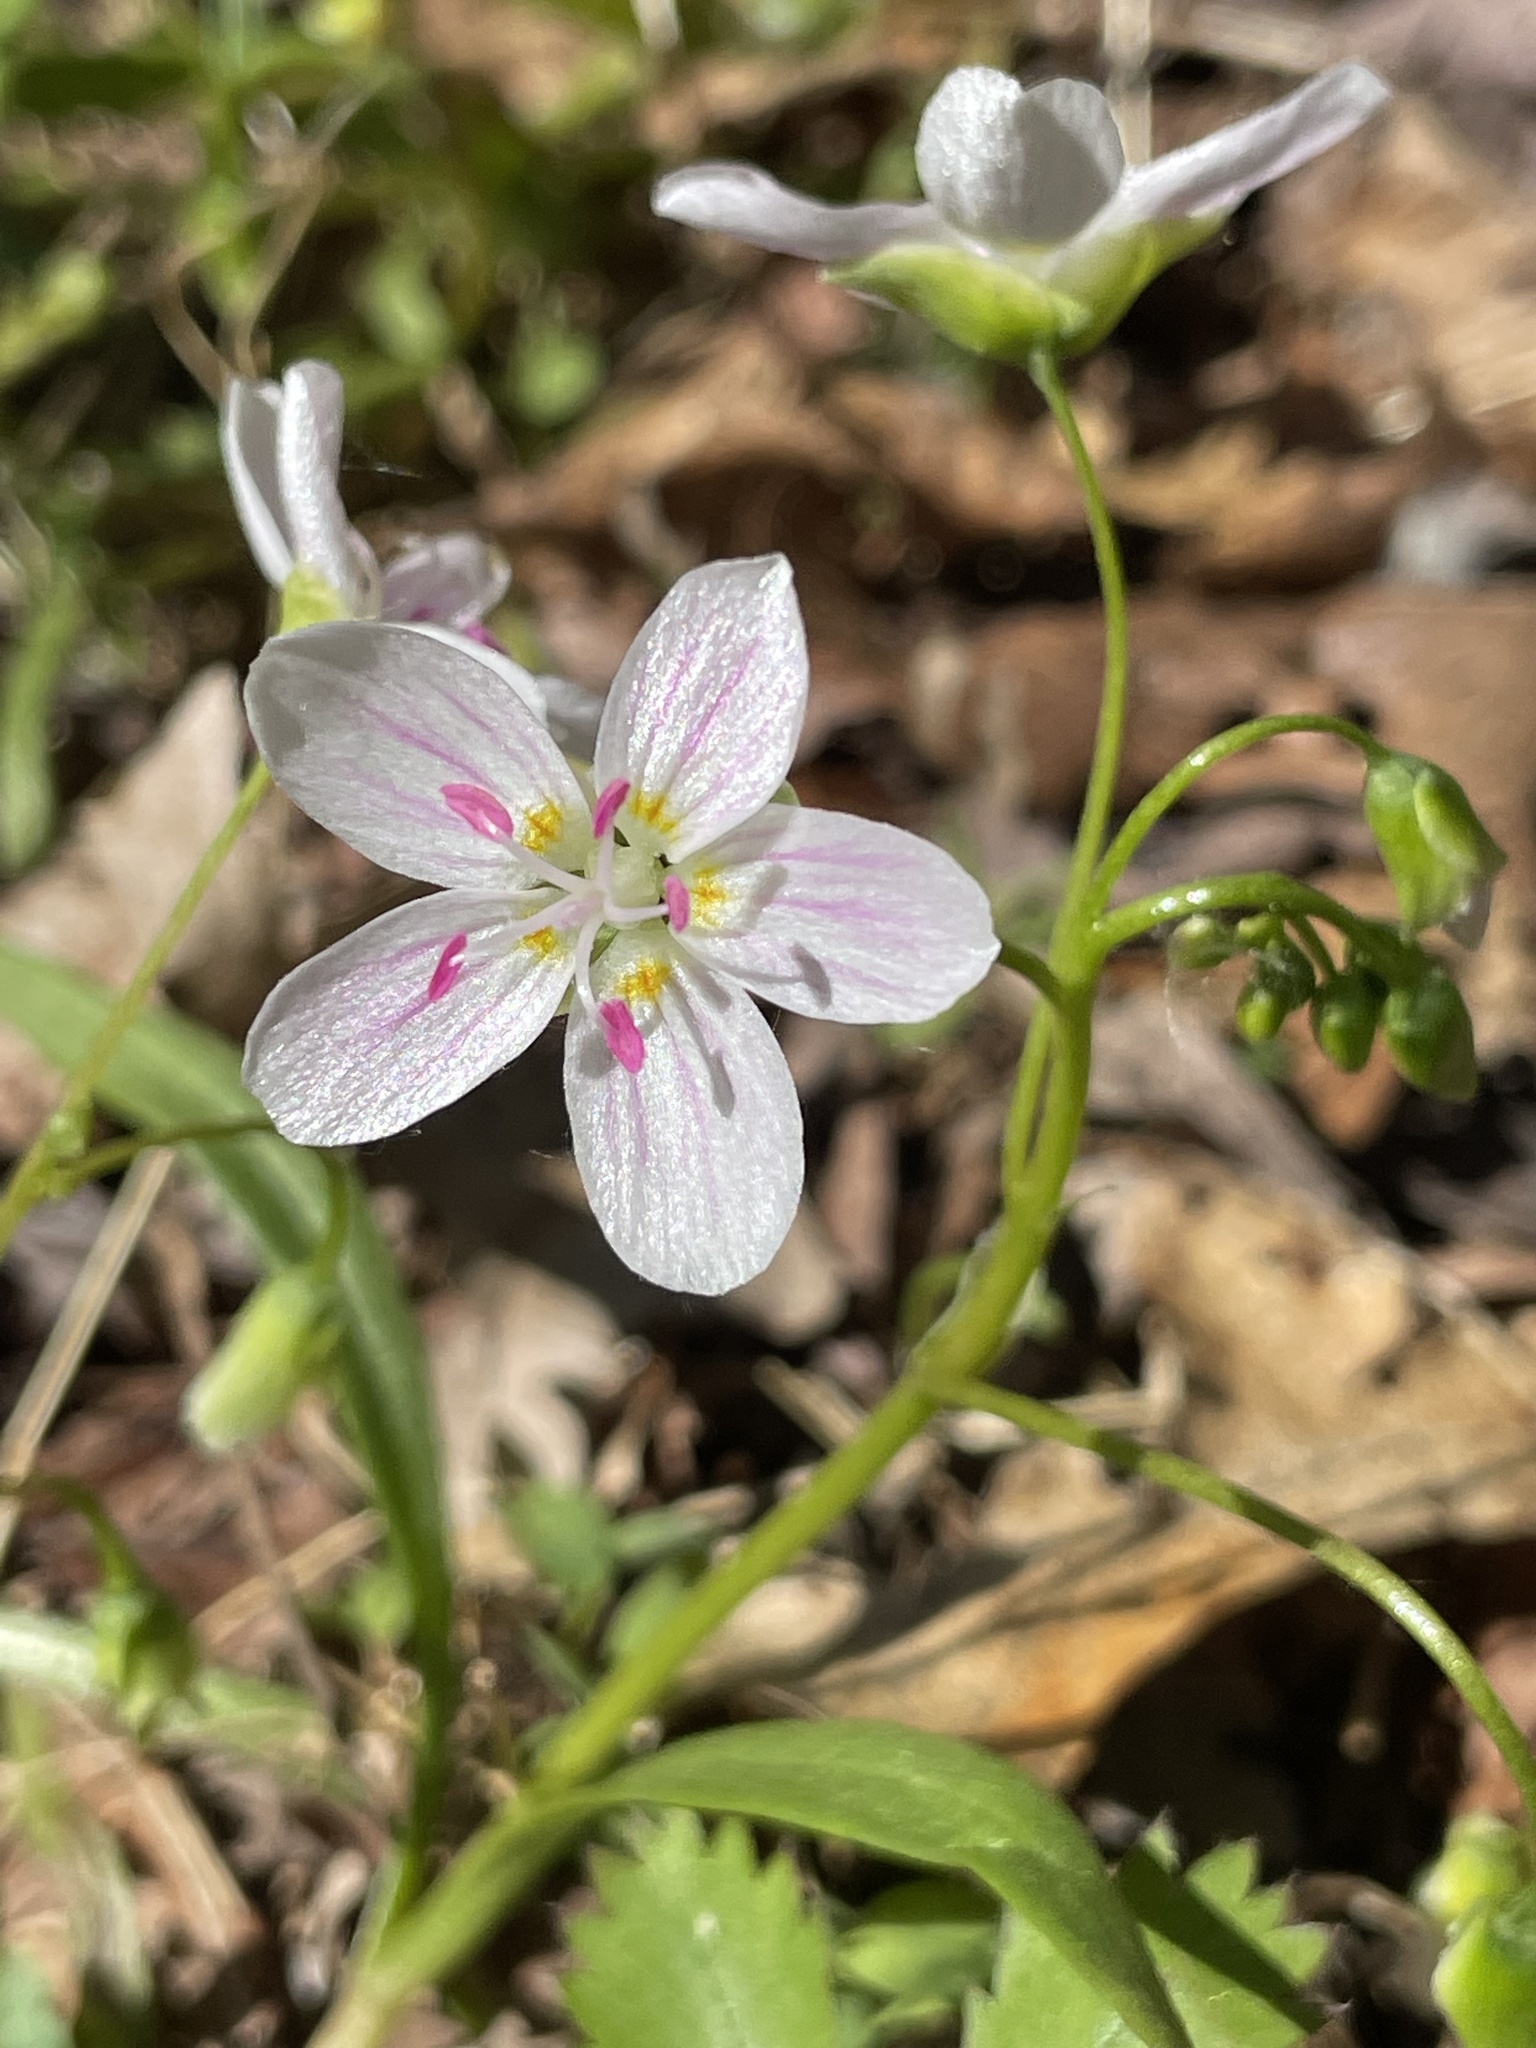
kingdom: Plantae
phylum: Tracheophyta
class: Magnoliopsida
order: Caryophyllales
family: Montiaceae
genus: Claytonia
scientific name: Claytonia virginica
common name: Virginia springbeauty
